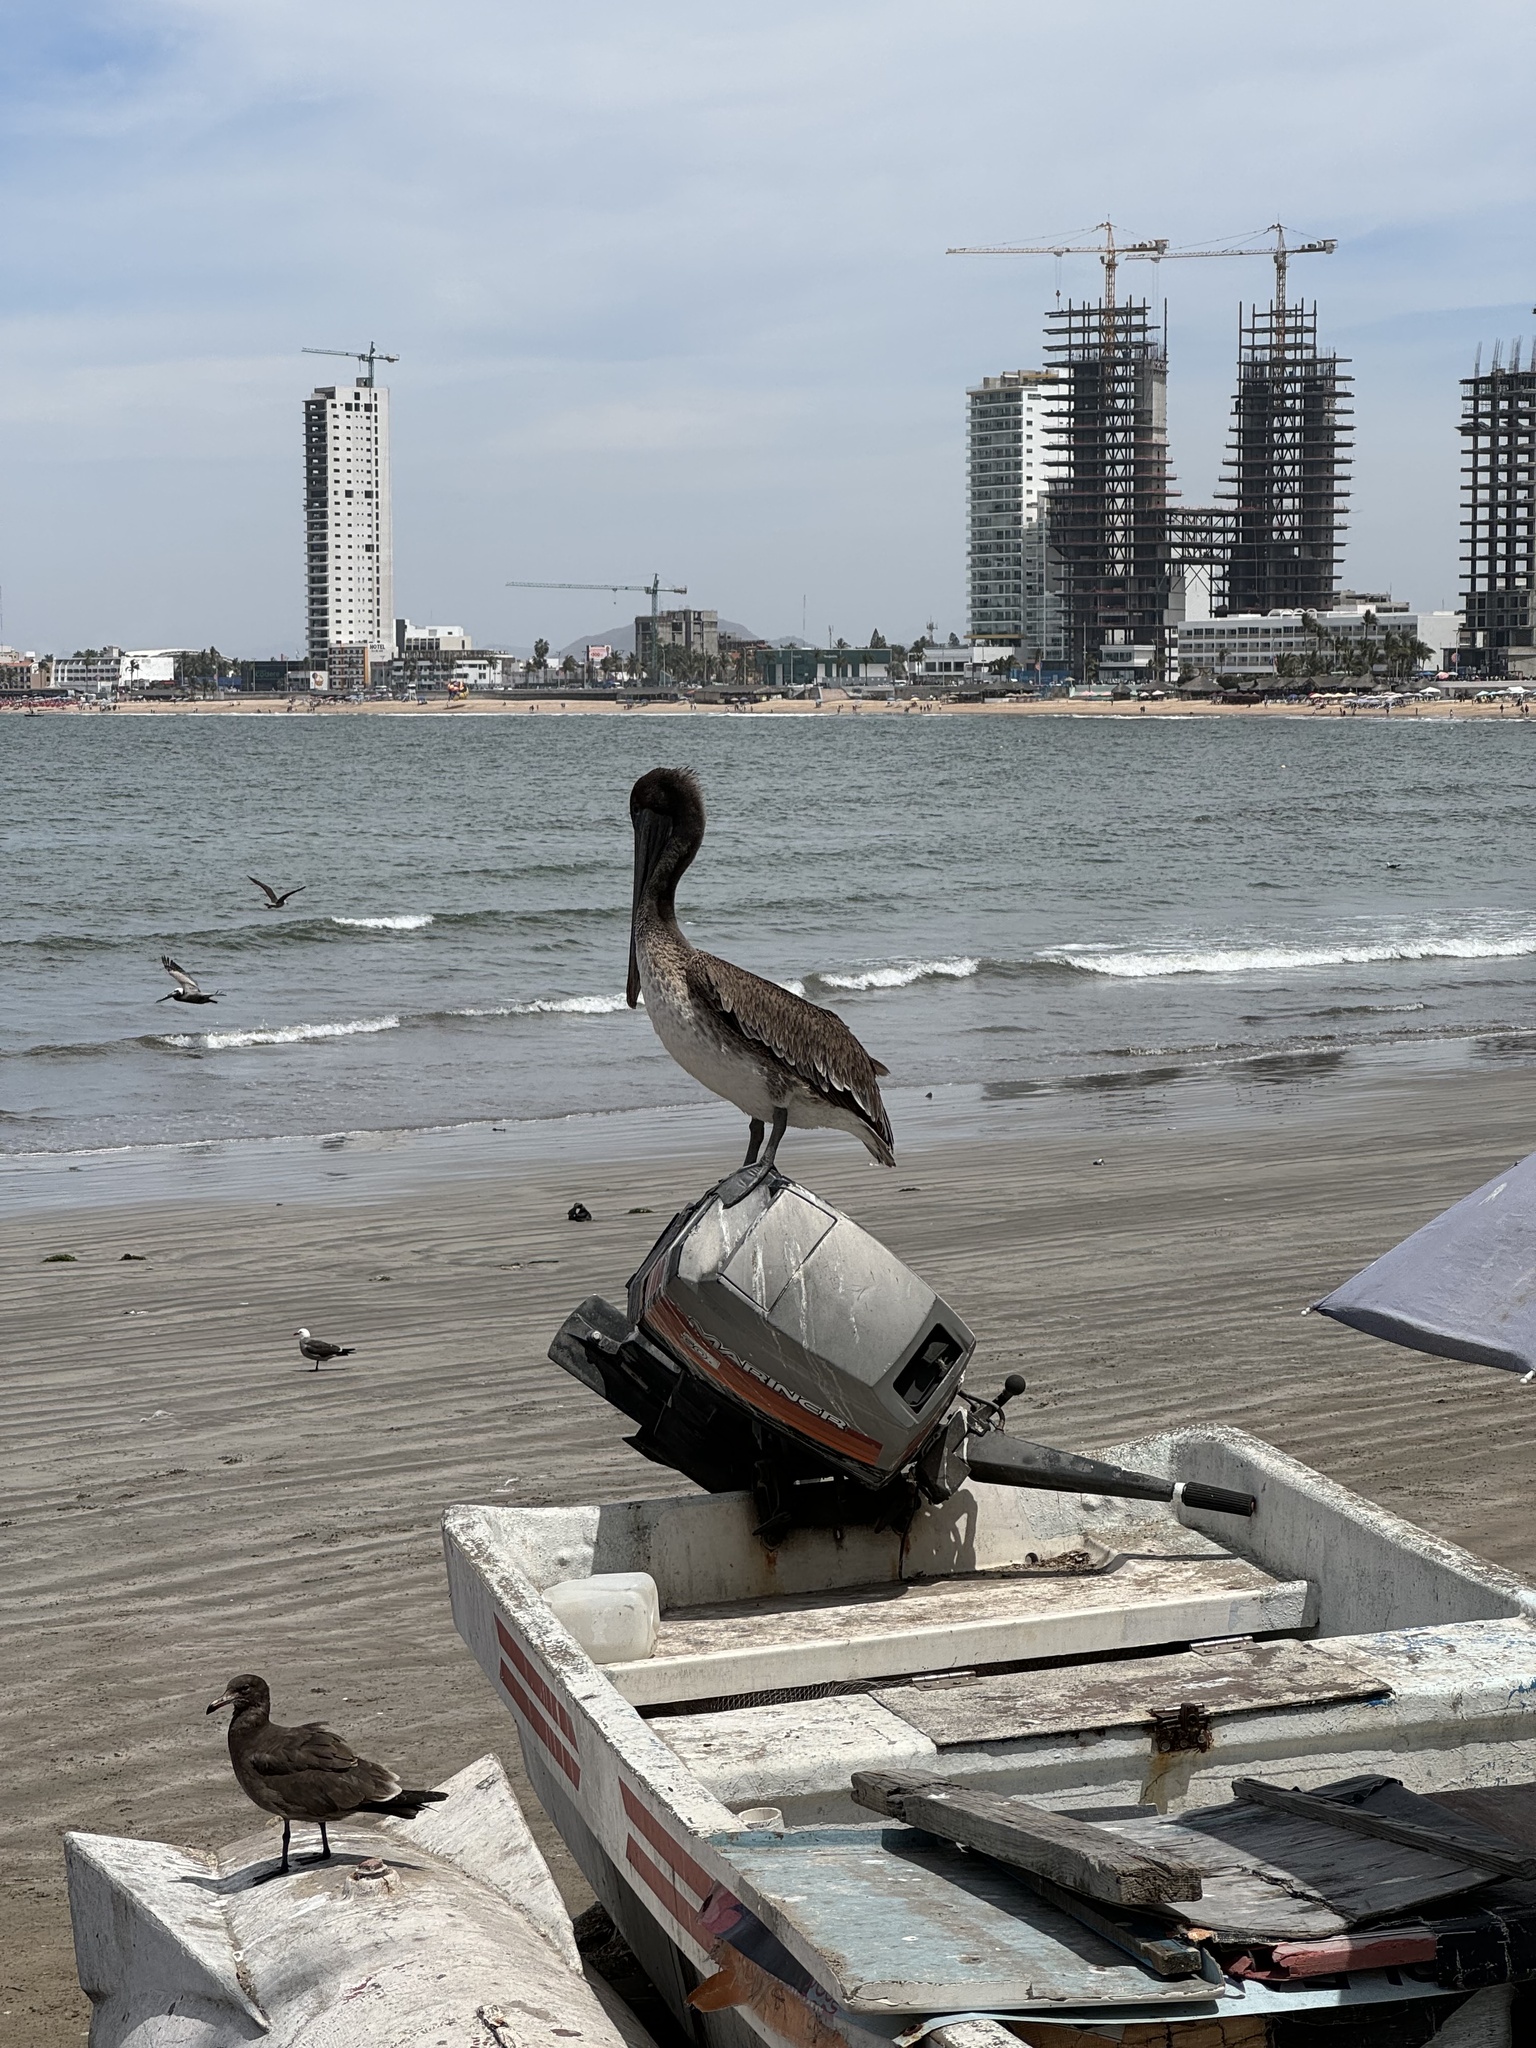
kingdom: Animalia
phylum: Chordata
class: Aves
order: Pelecaniformes
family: Pelecanidae
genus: Pelecanus
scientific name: Pelecanus occidentalis
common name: Brown pelican
